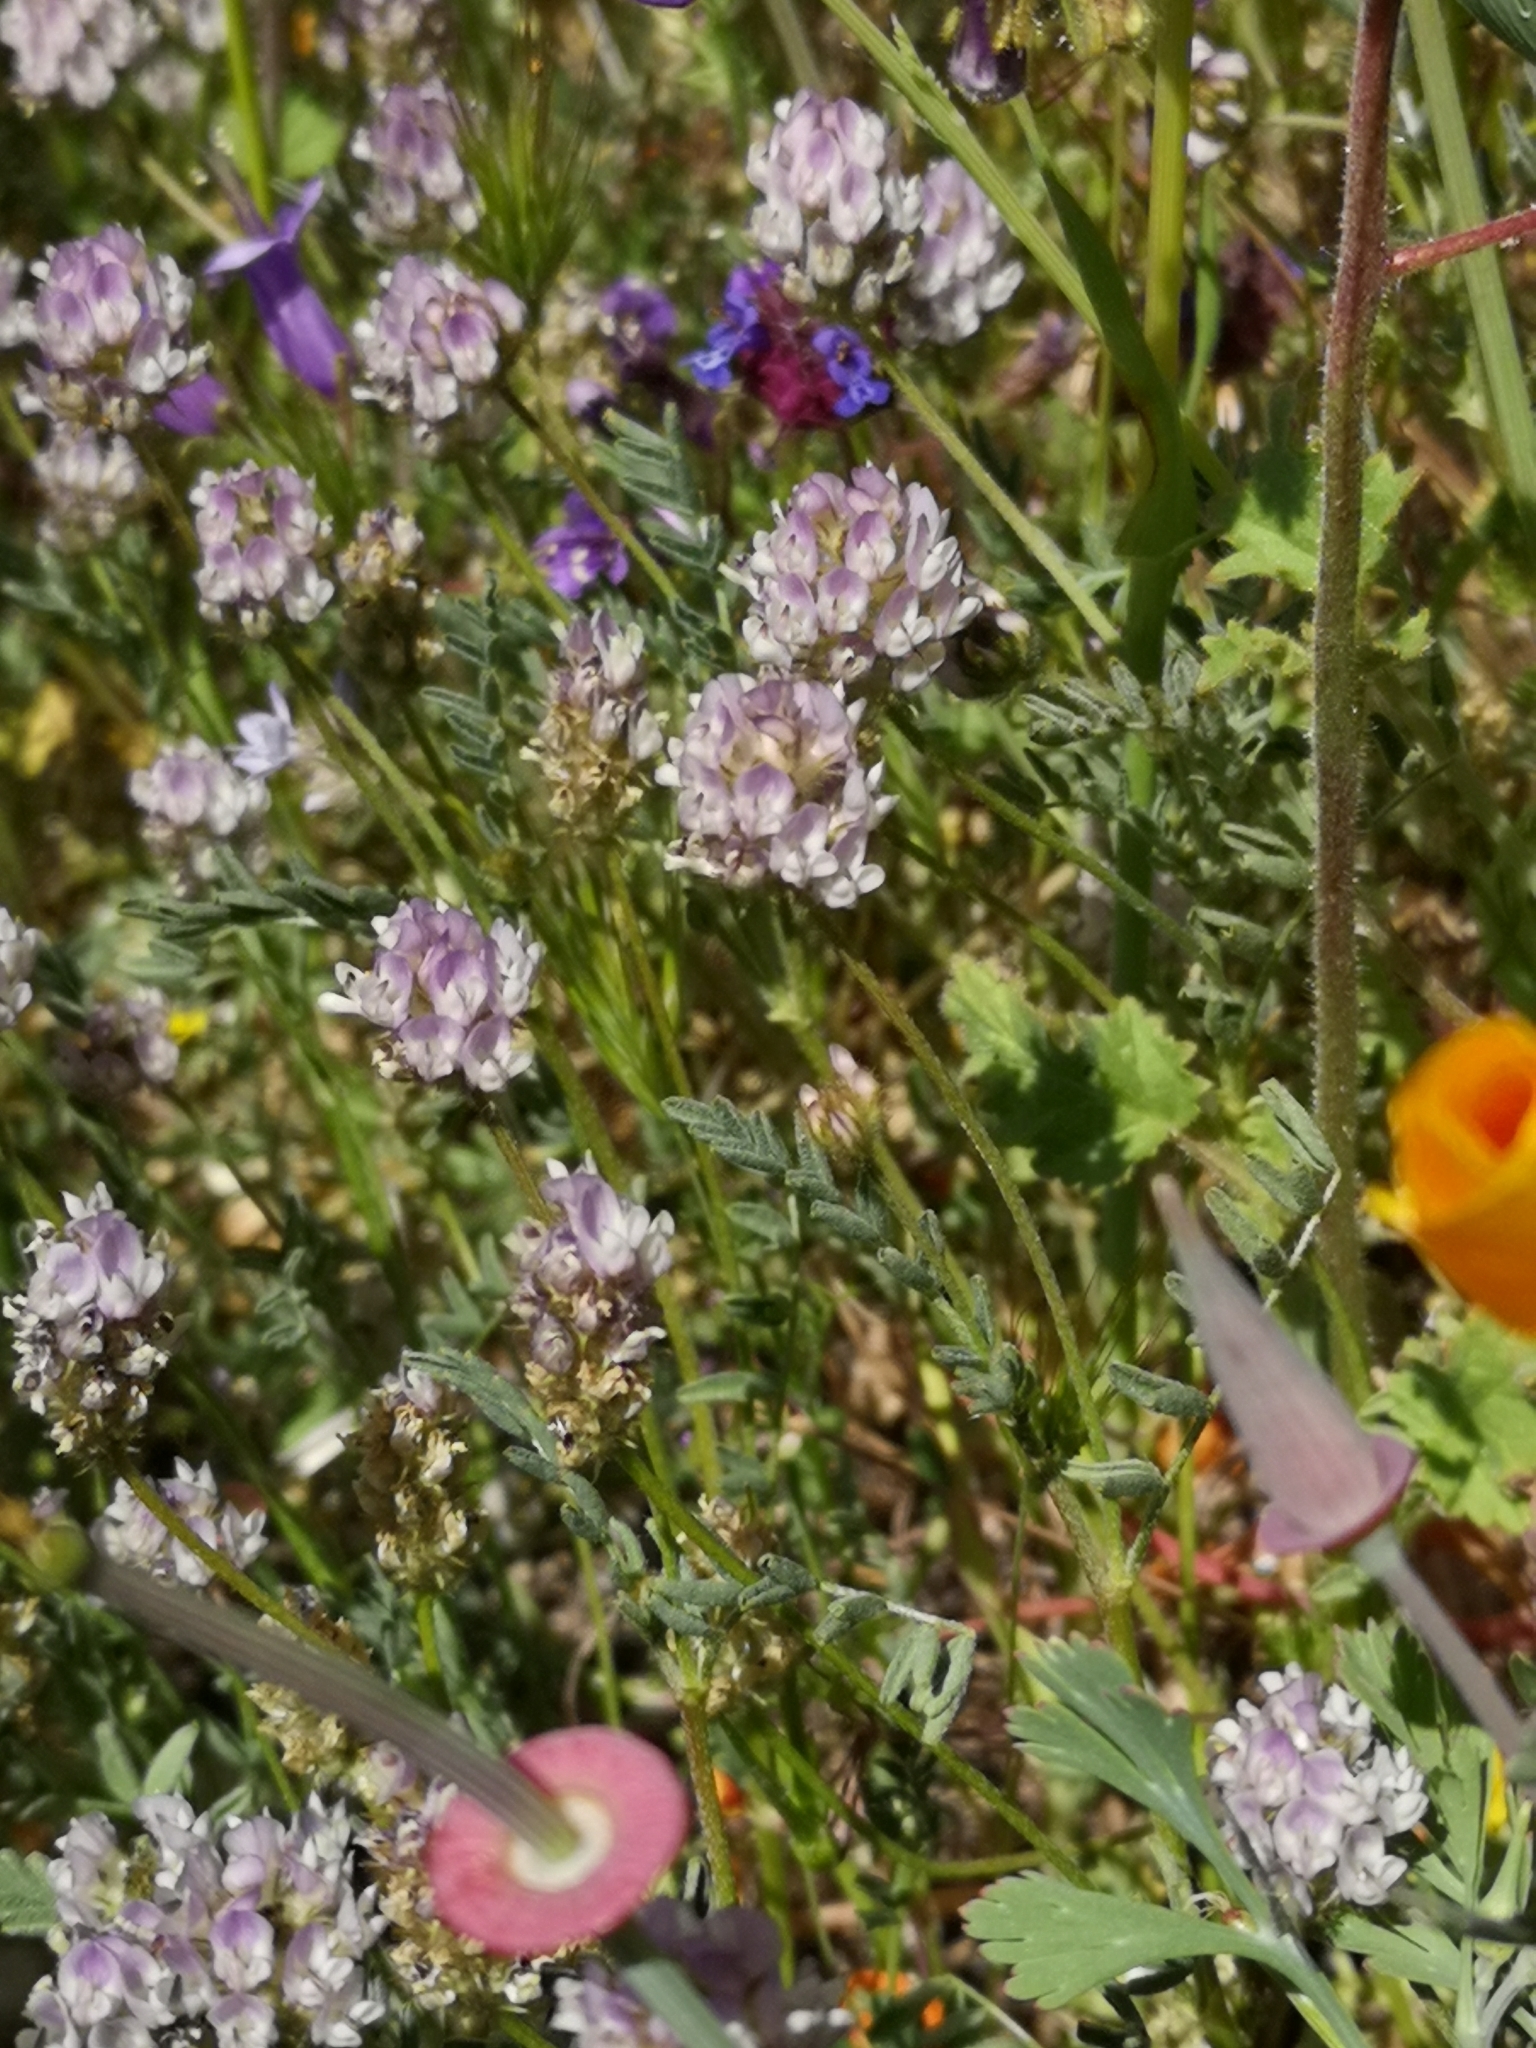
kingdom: Plantae
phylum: Tracheophyta
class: Magnoliopsida
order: Fabales
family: Fabaceae
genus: Astragalus
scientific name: Astragalus didymocarpus
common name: Dwarf white milkvetch
